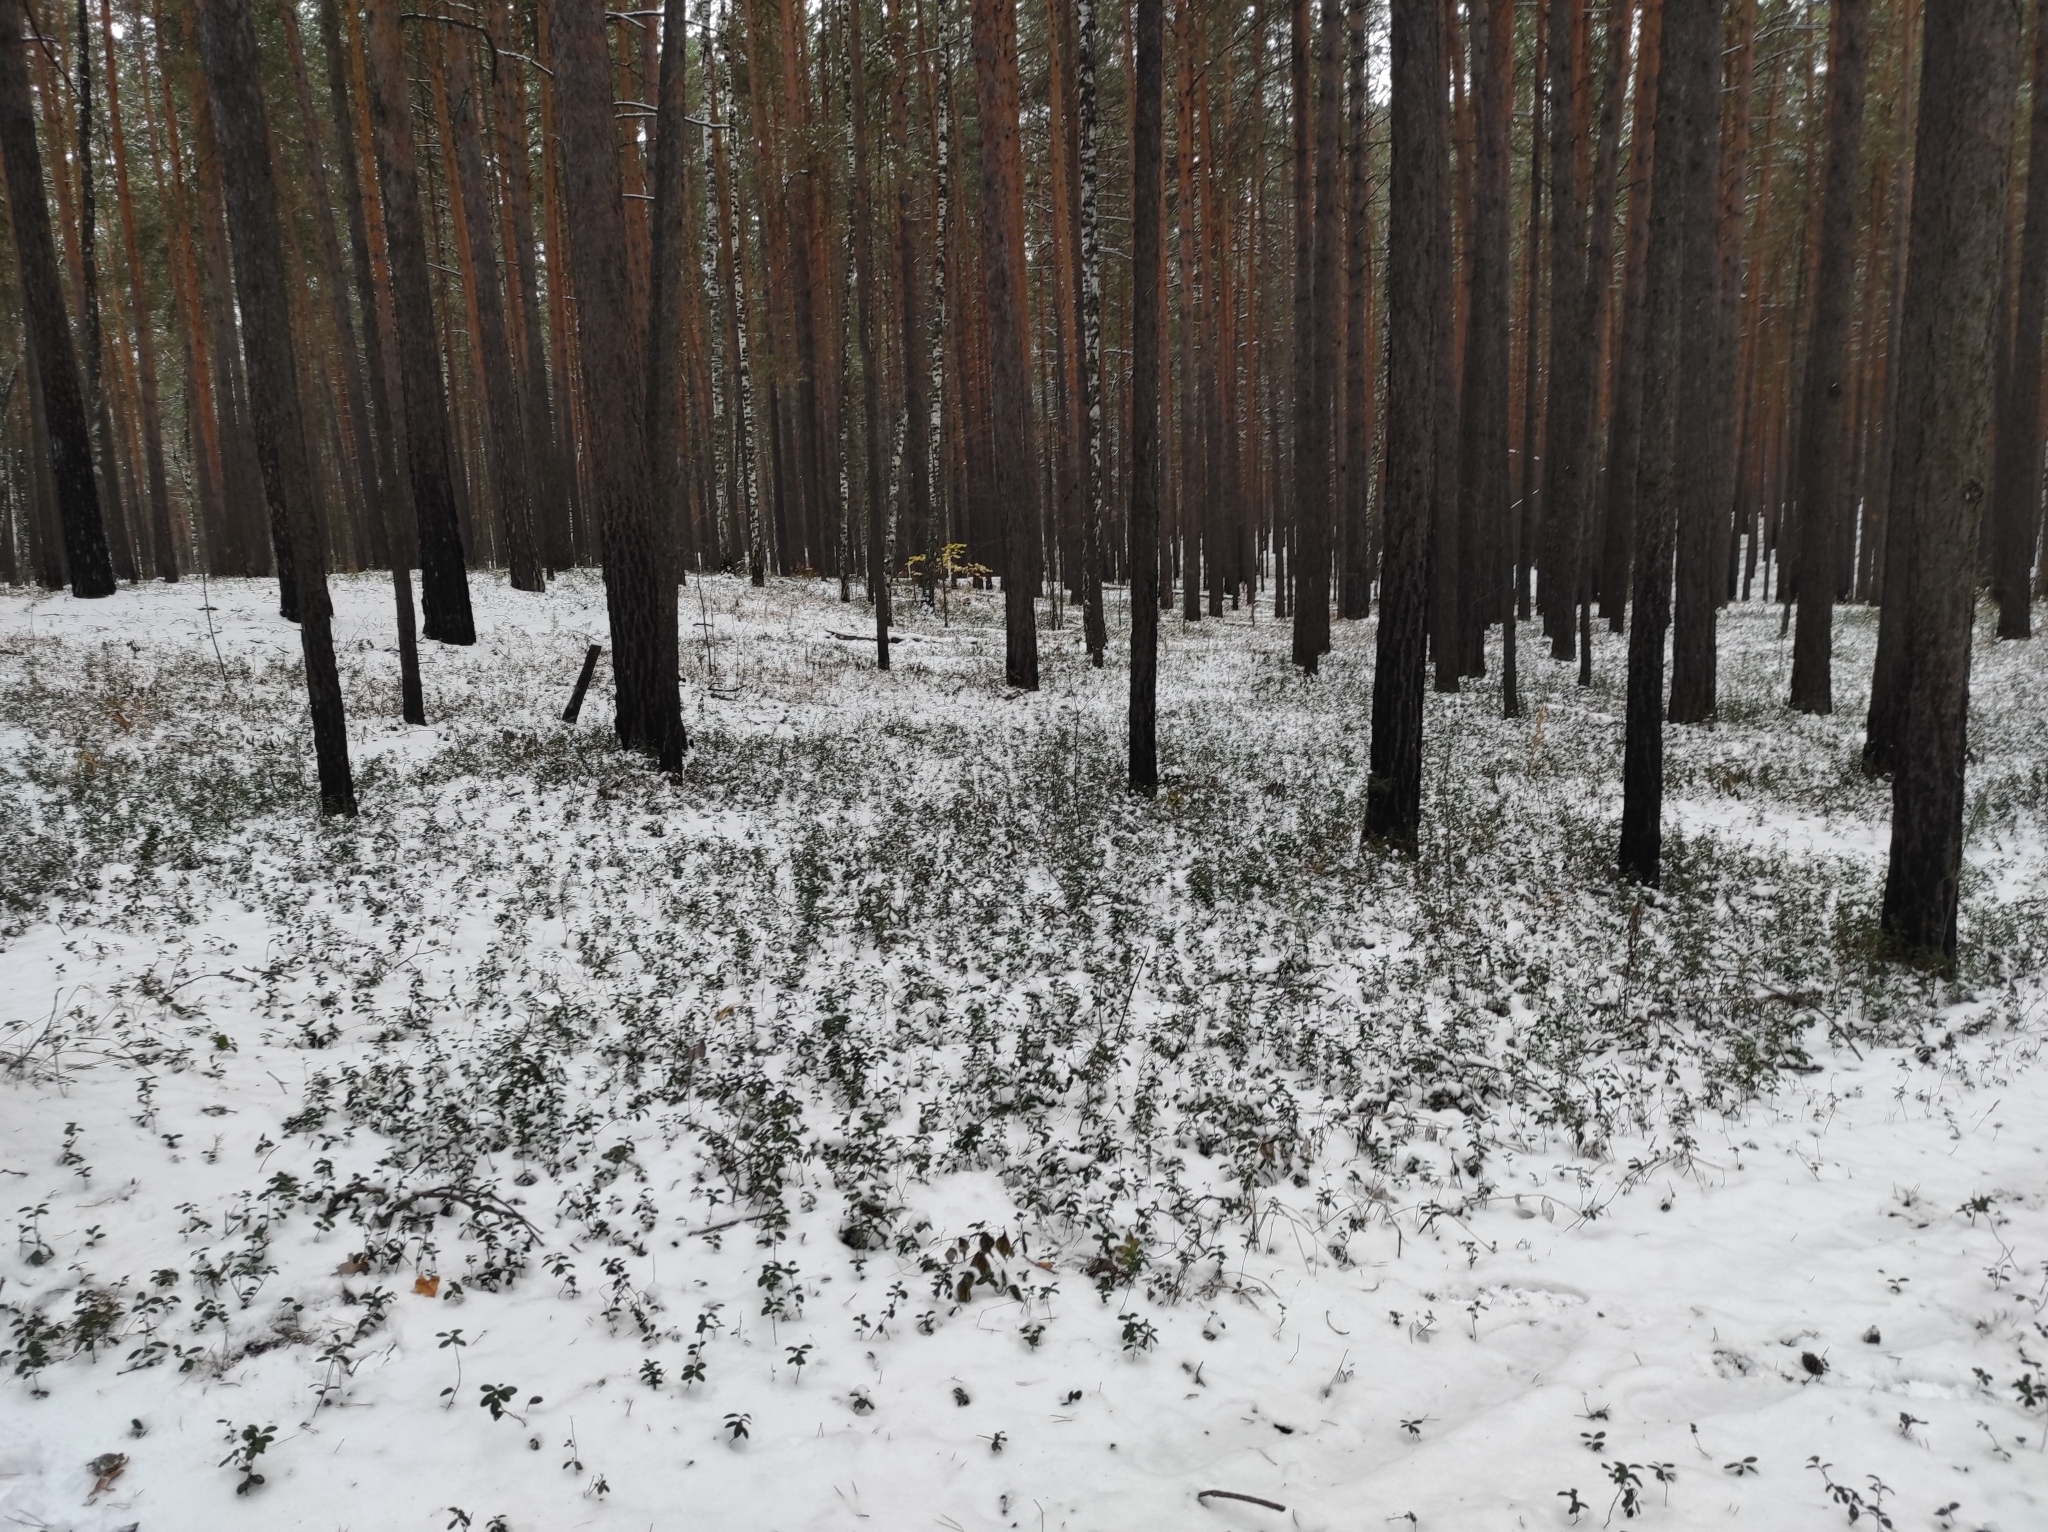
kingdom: Plantae
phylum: Tracheophyta
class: Pinopsida
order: Pinales
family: Pinaceae
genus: Pinus
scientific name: Pinus sylvestris
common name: Scots pine
